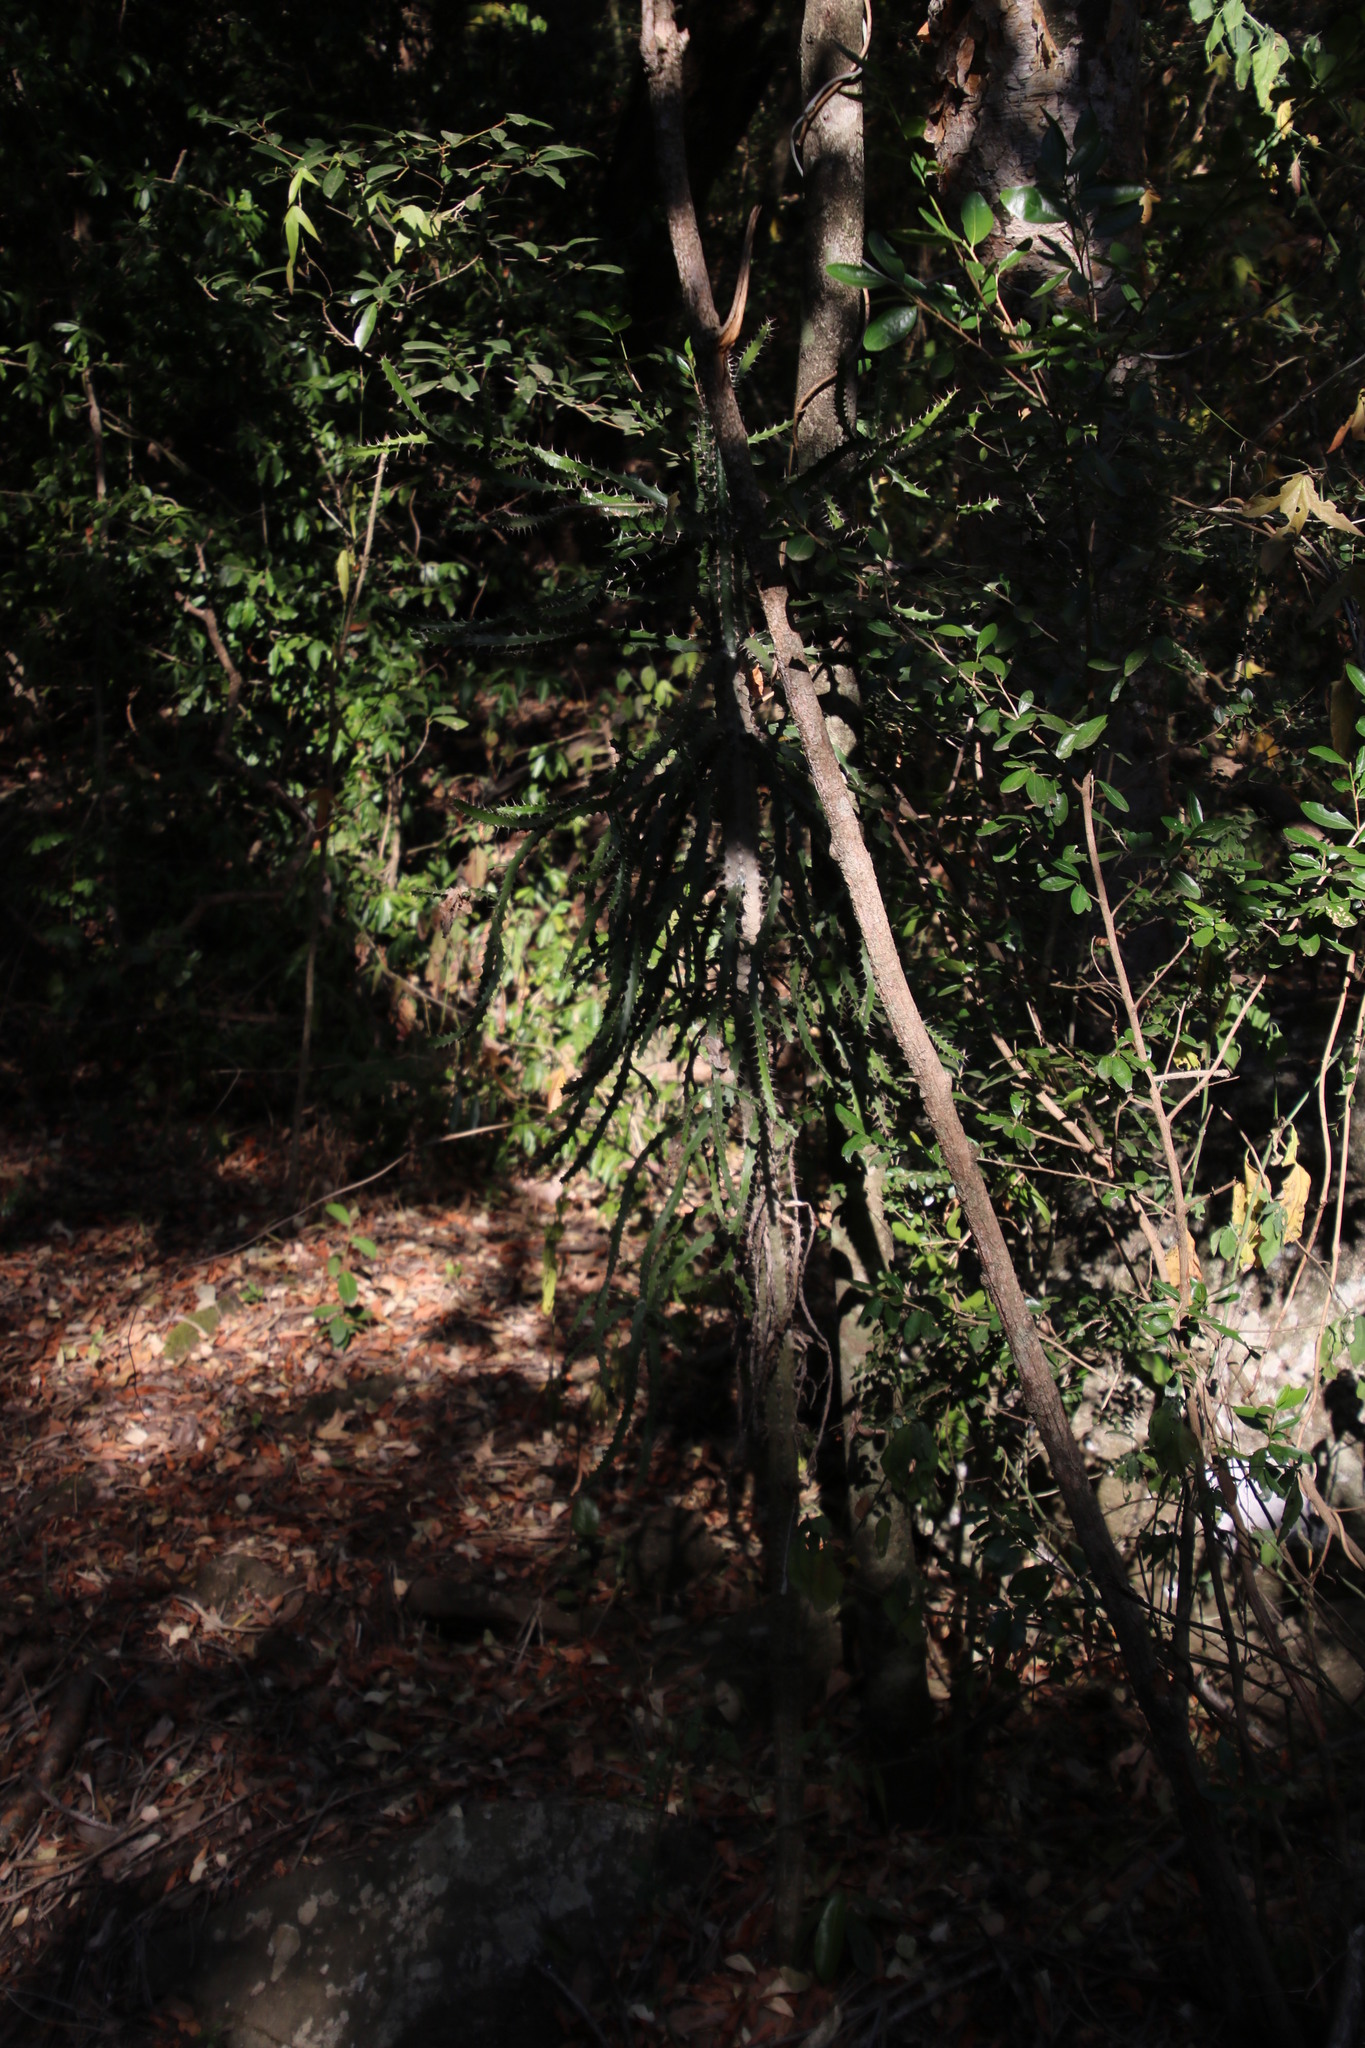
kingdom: Plantae
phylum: Tracheophyta
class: Magnoliopsida
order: Malpighiales
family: Euphorbiaceae
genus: Euphorbia
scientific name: Euphorbia grandidens
